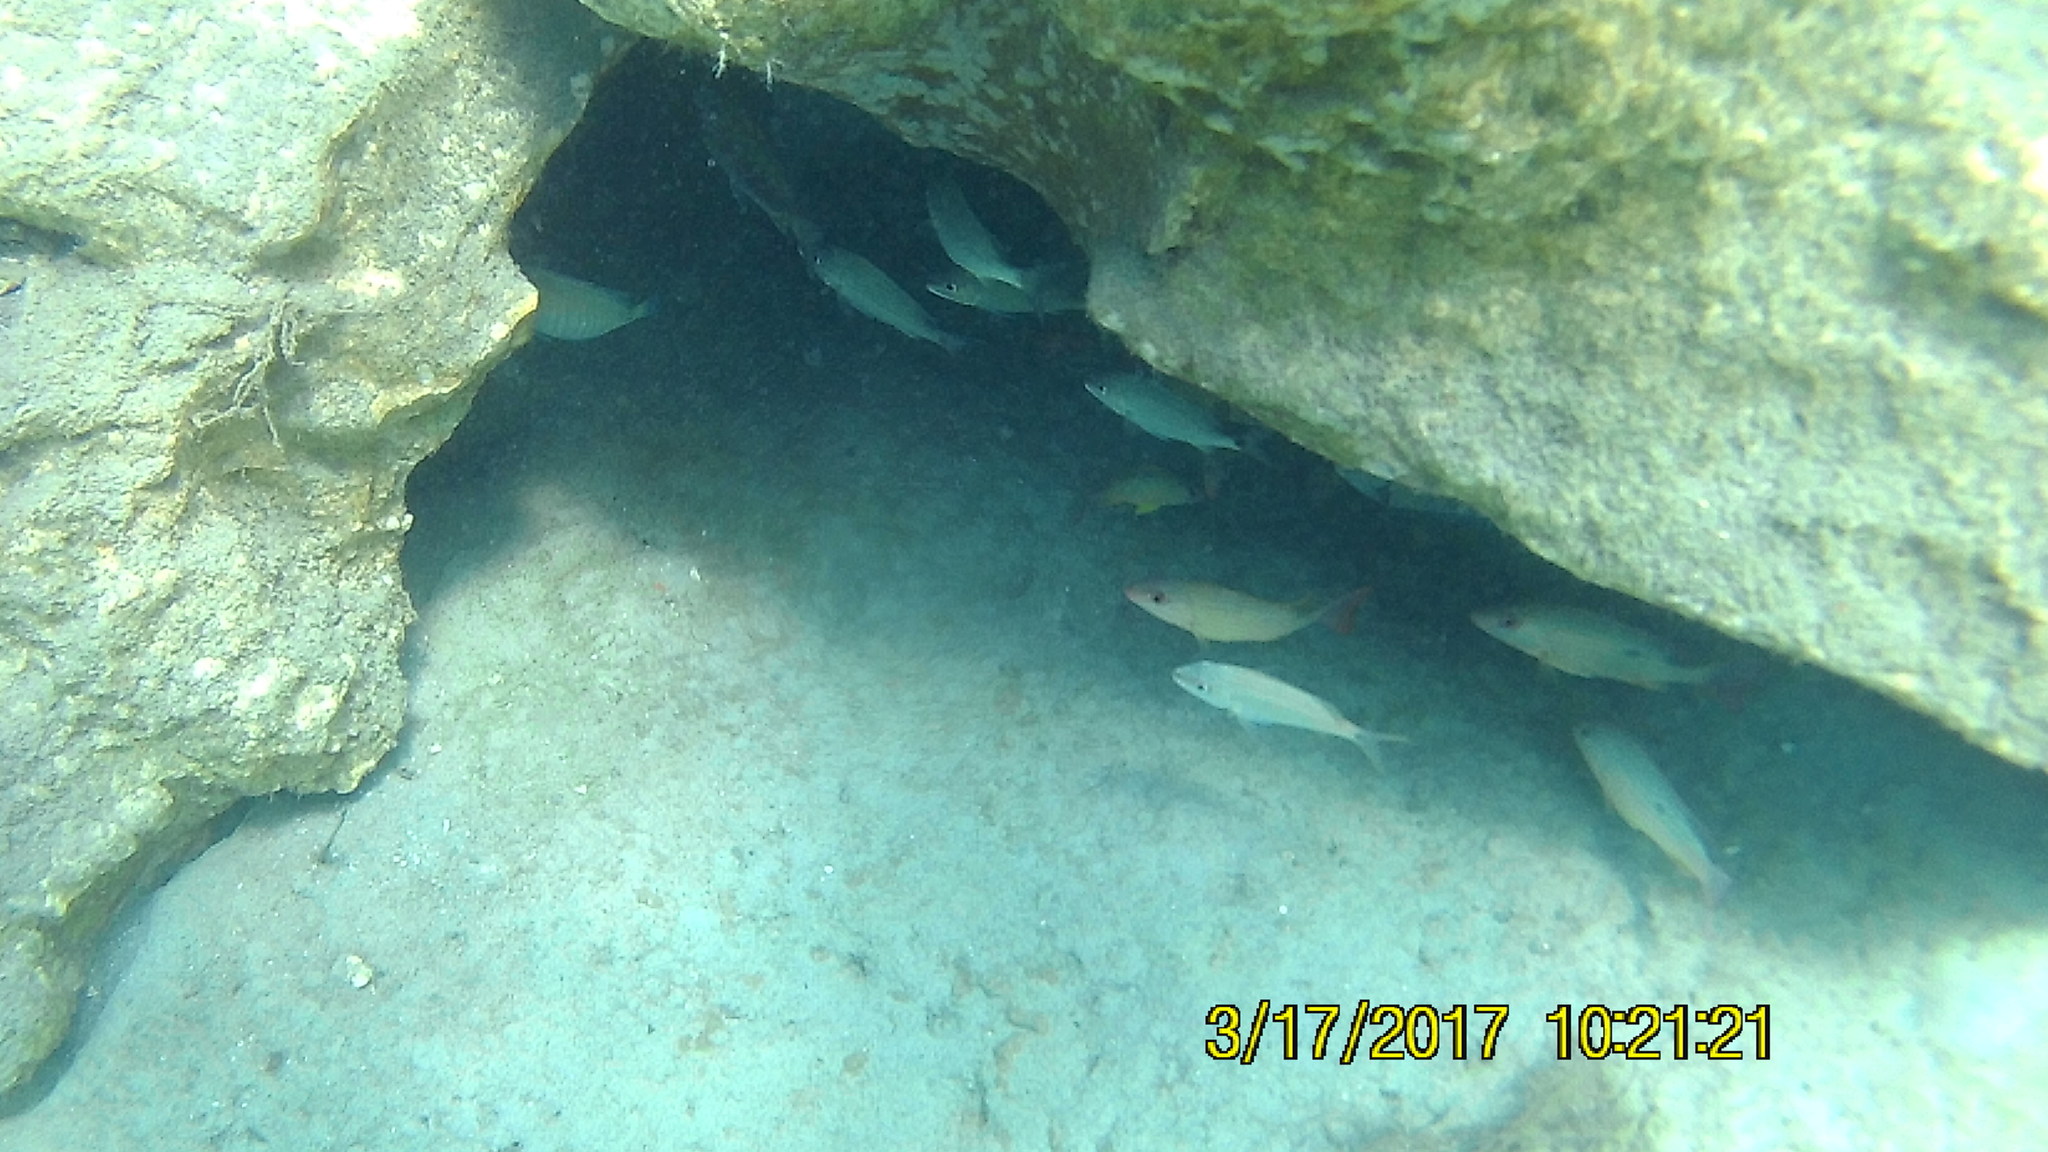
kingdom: Animalia
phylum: Chordata
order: Perciformes
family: Lutjanidae
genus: Lutjanus
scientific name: Lutjanus synagris
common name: Lane snapper
